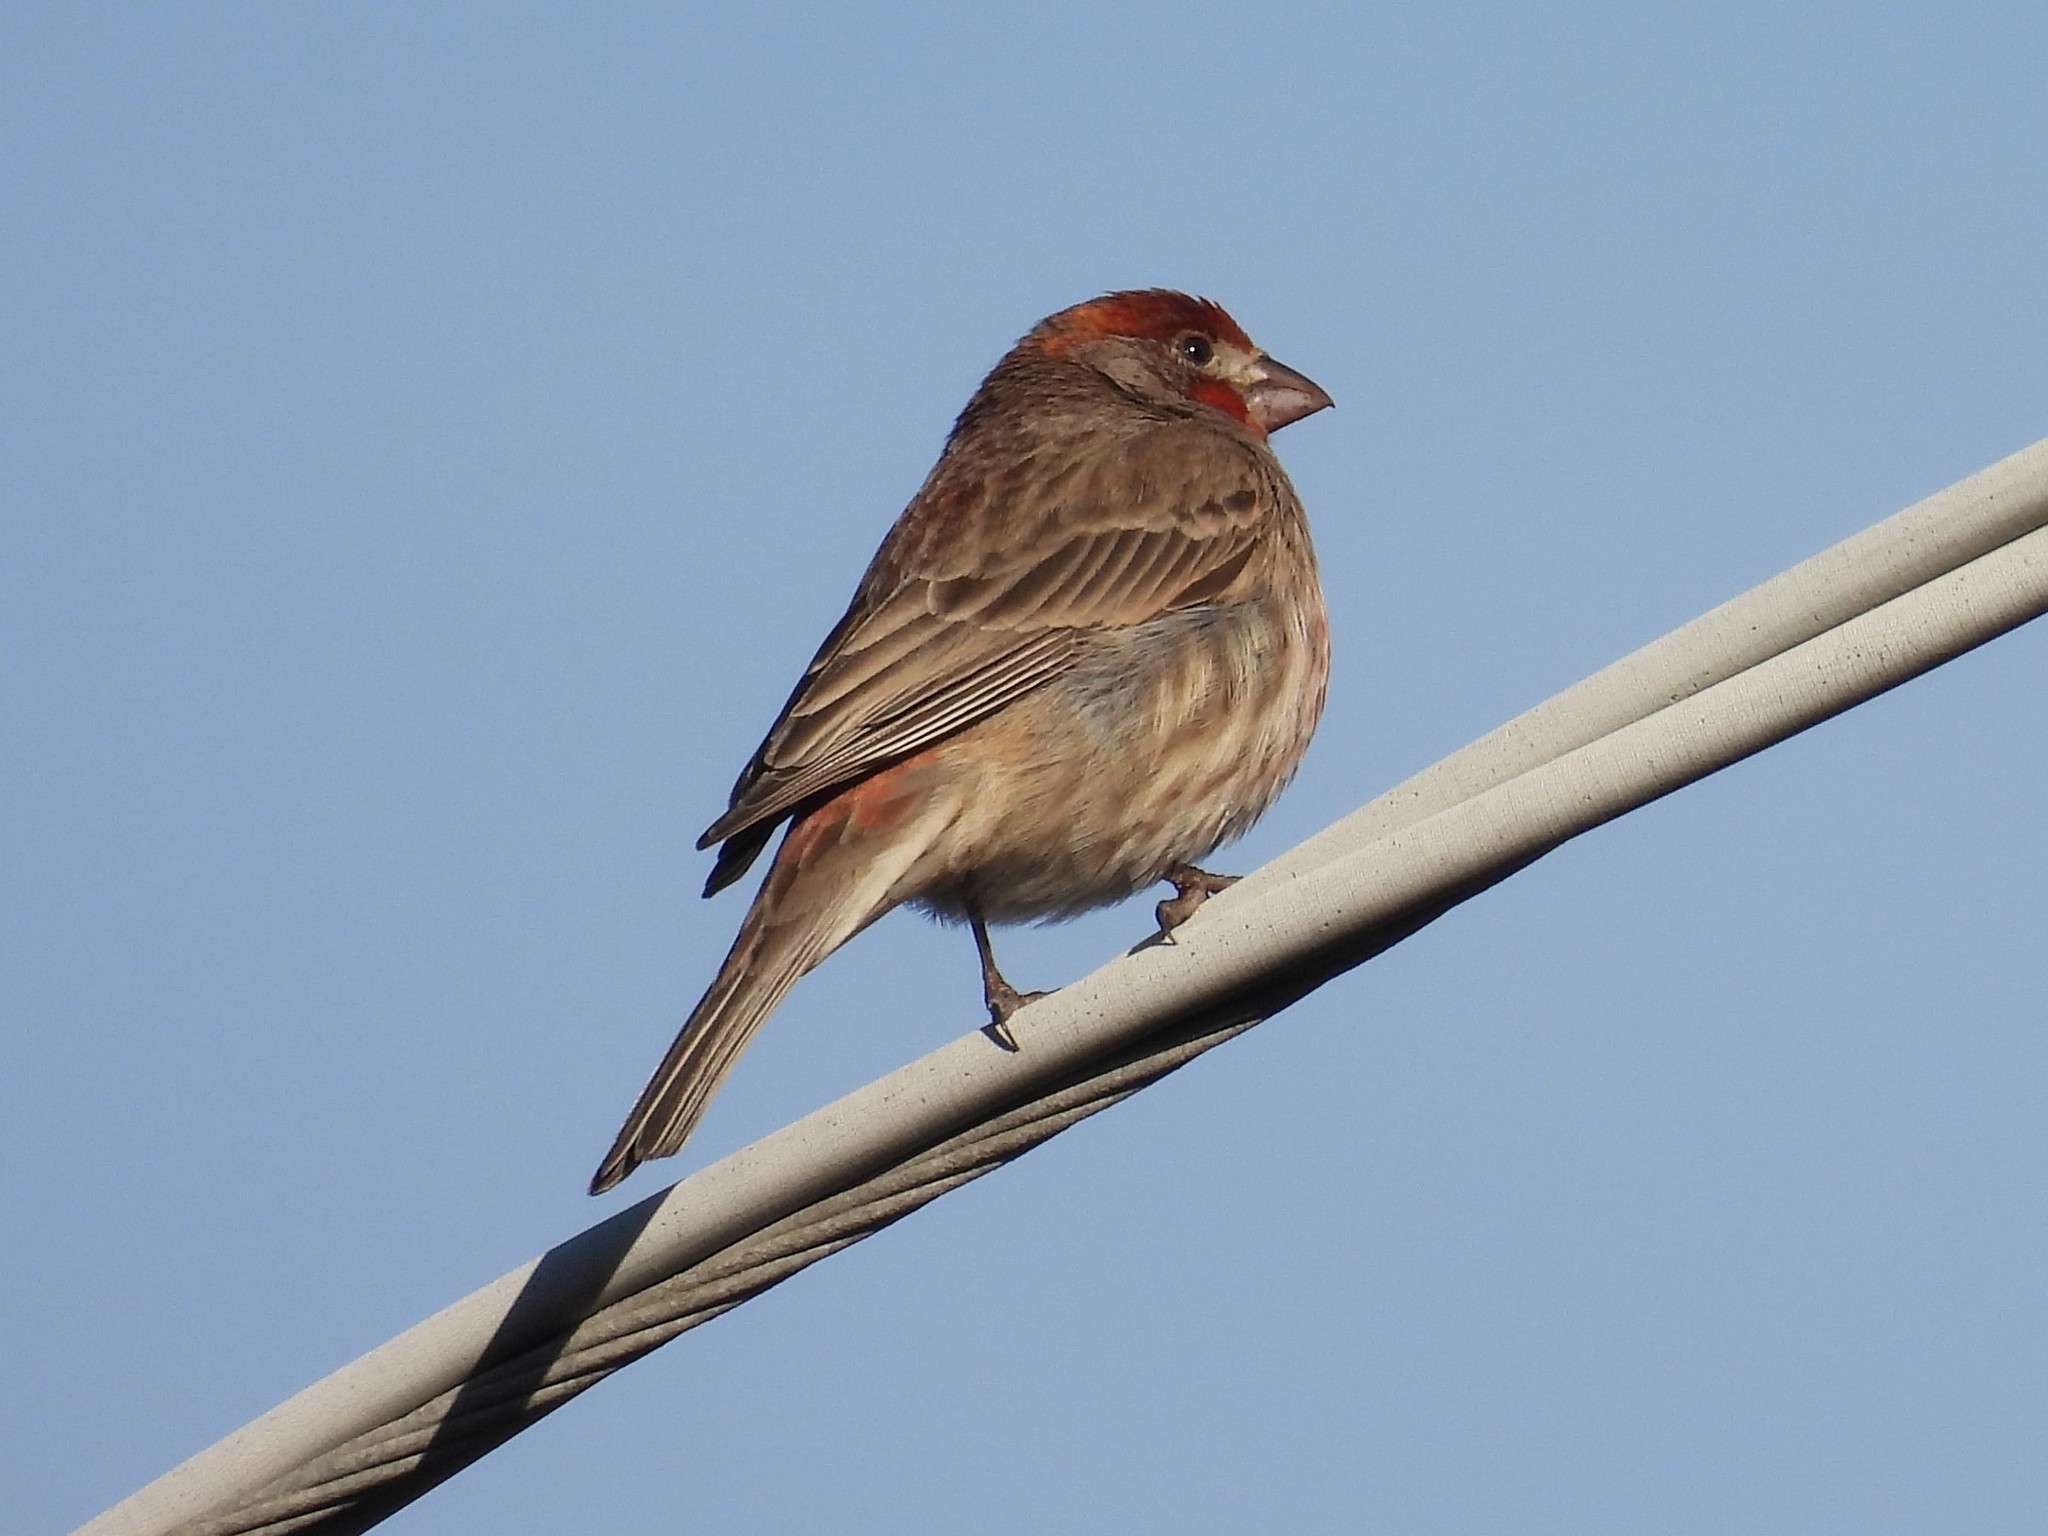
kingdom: Animalia
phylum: Chordata
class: Aves
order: Passeriformes
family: Fringillidae
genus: Haemorhous
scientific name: Haemorhous mexicanus
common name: House finch
